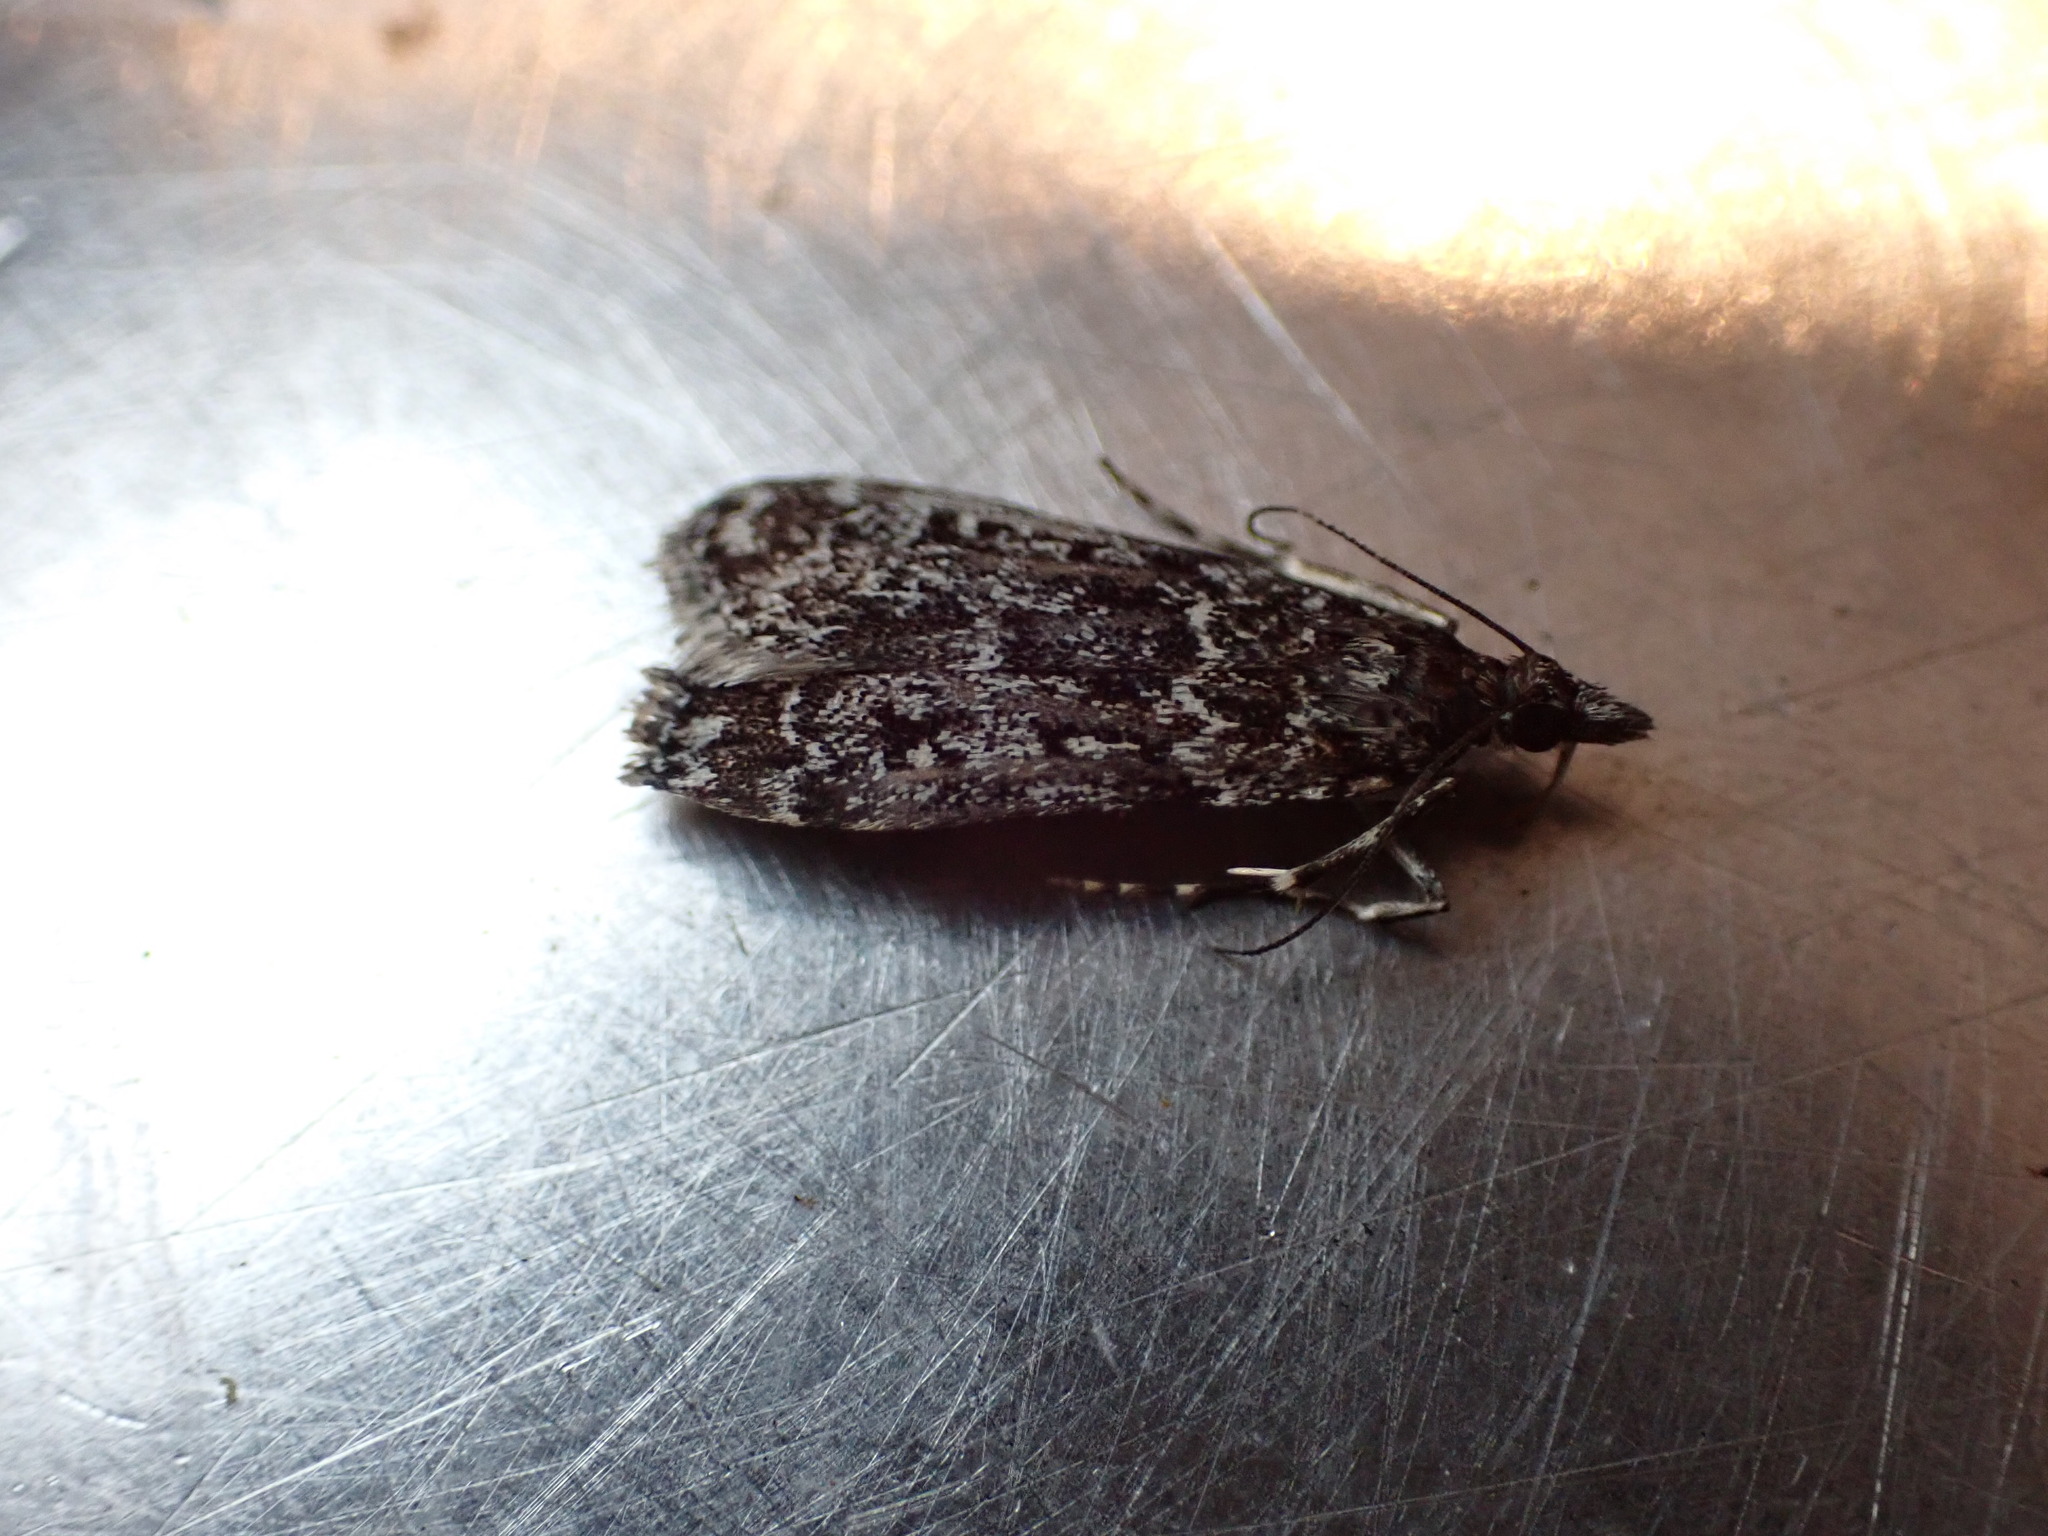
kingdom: Animalia
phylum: Arthropoda
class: Insecta
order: Lepidoptera
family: Crambidae
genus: Eudonia
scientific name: Eudonia philerga
